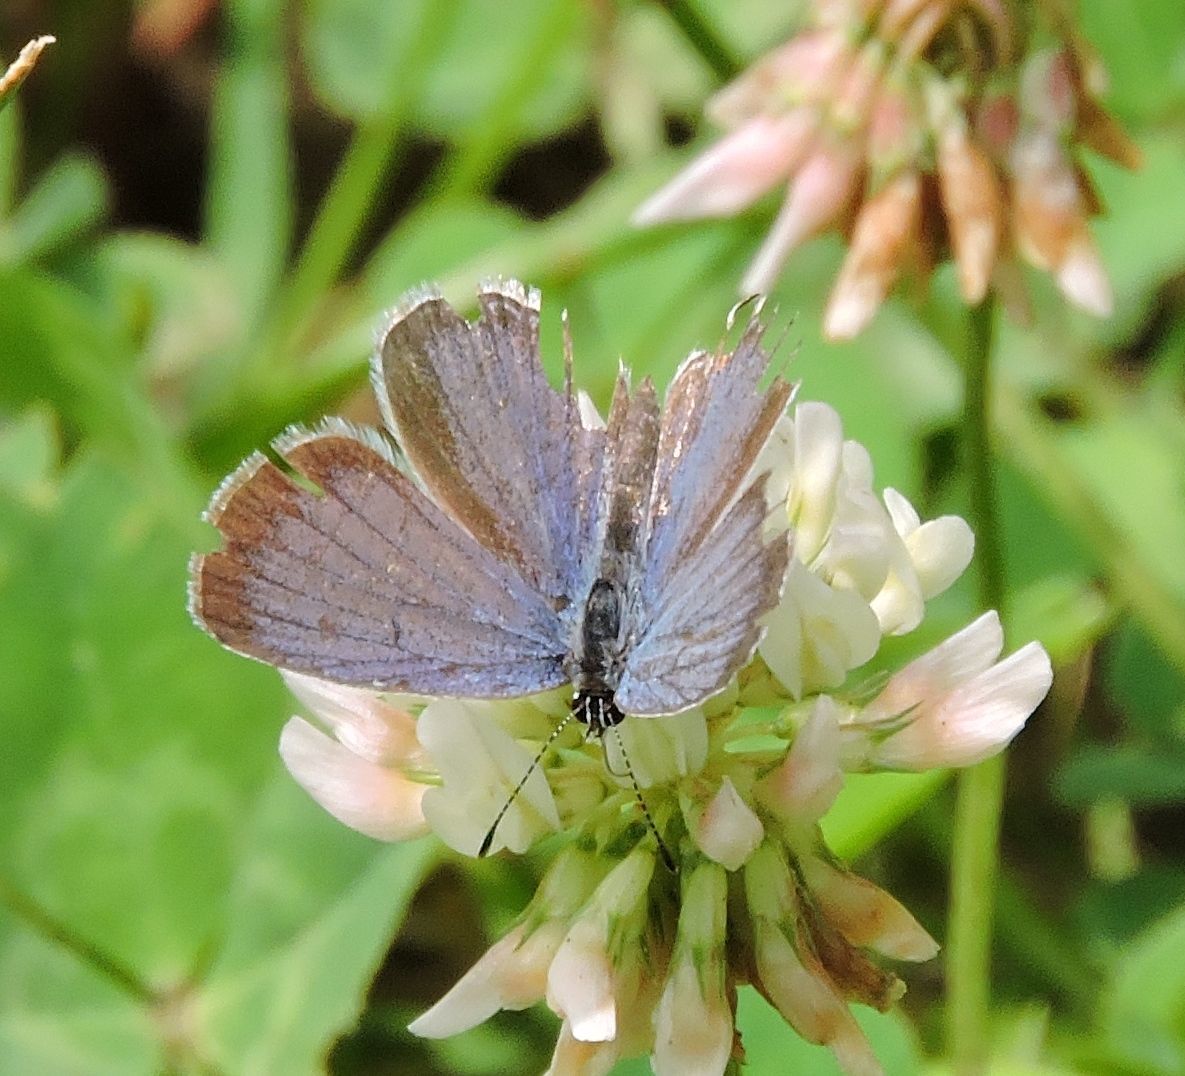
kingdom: Animalia
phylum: Arthropoda
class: Insecta
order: Lepidoptera
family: Lycaenidae
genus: Elkalyce
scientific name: Elkalyce comyntas
